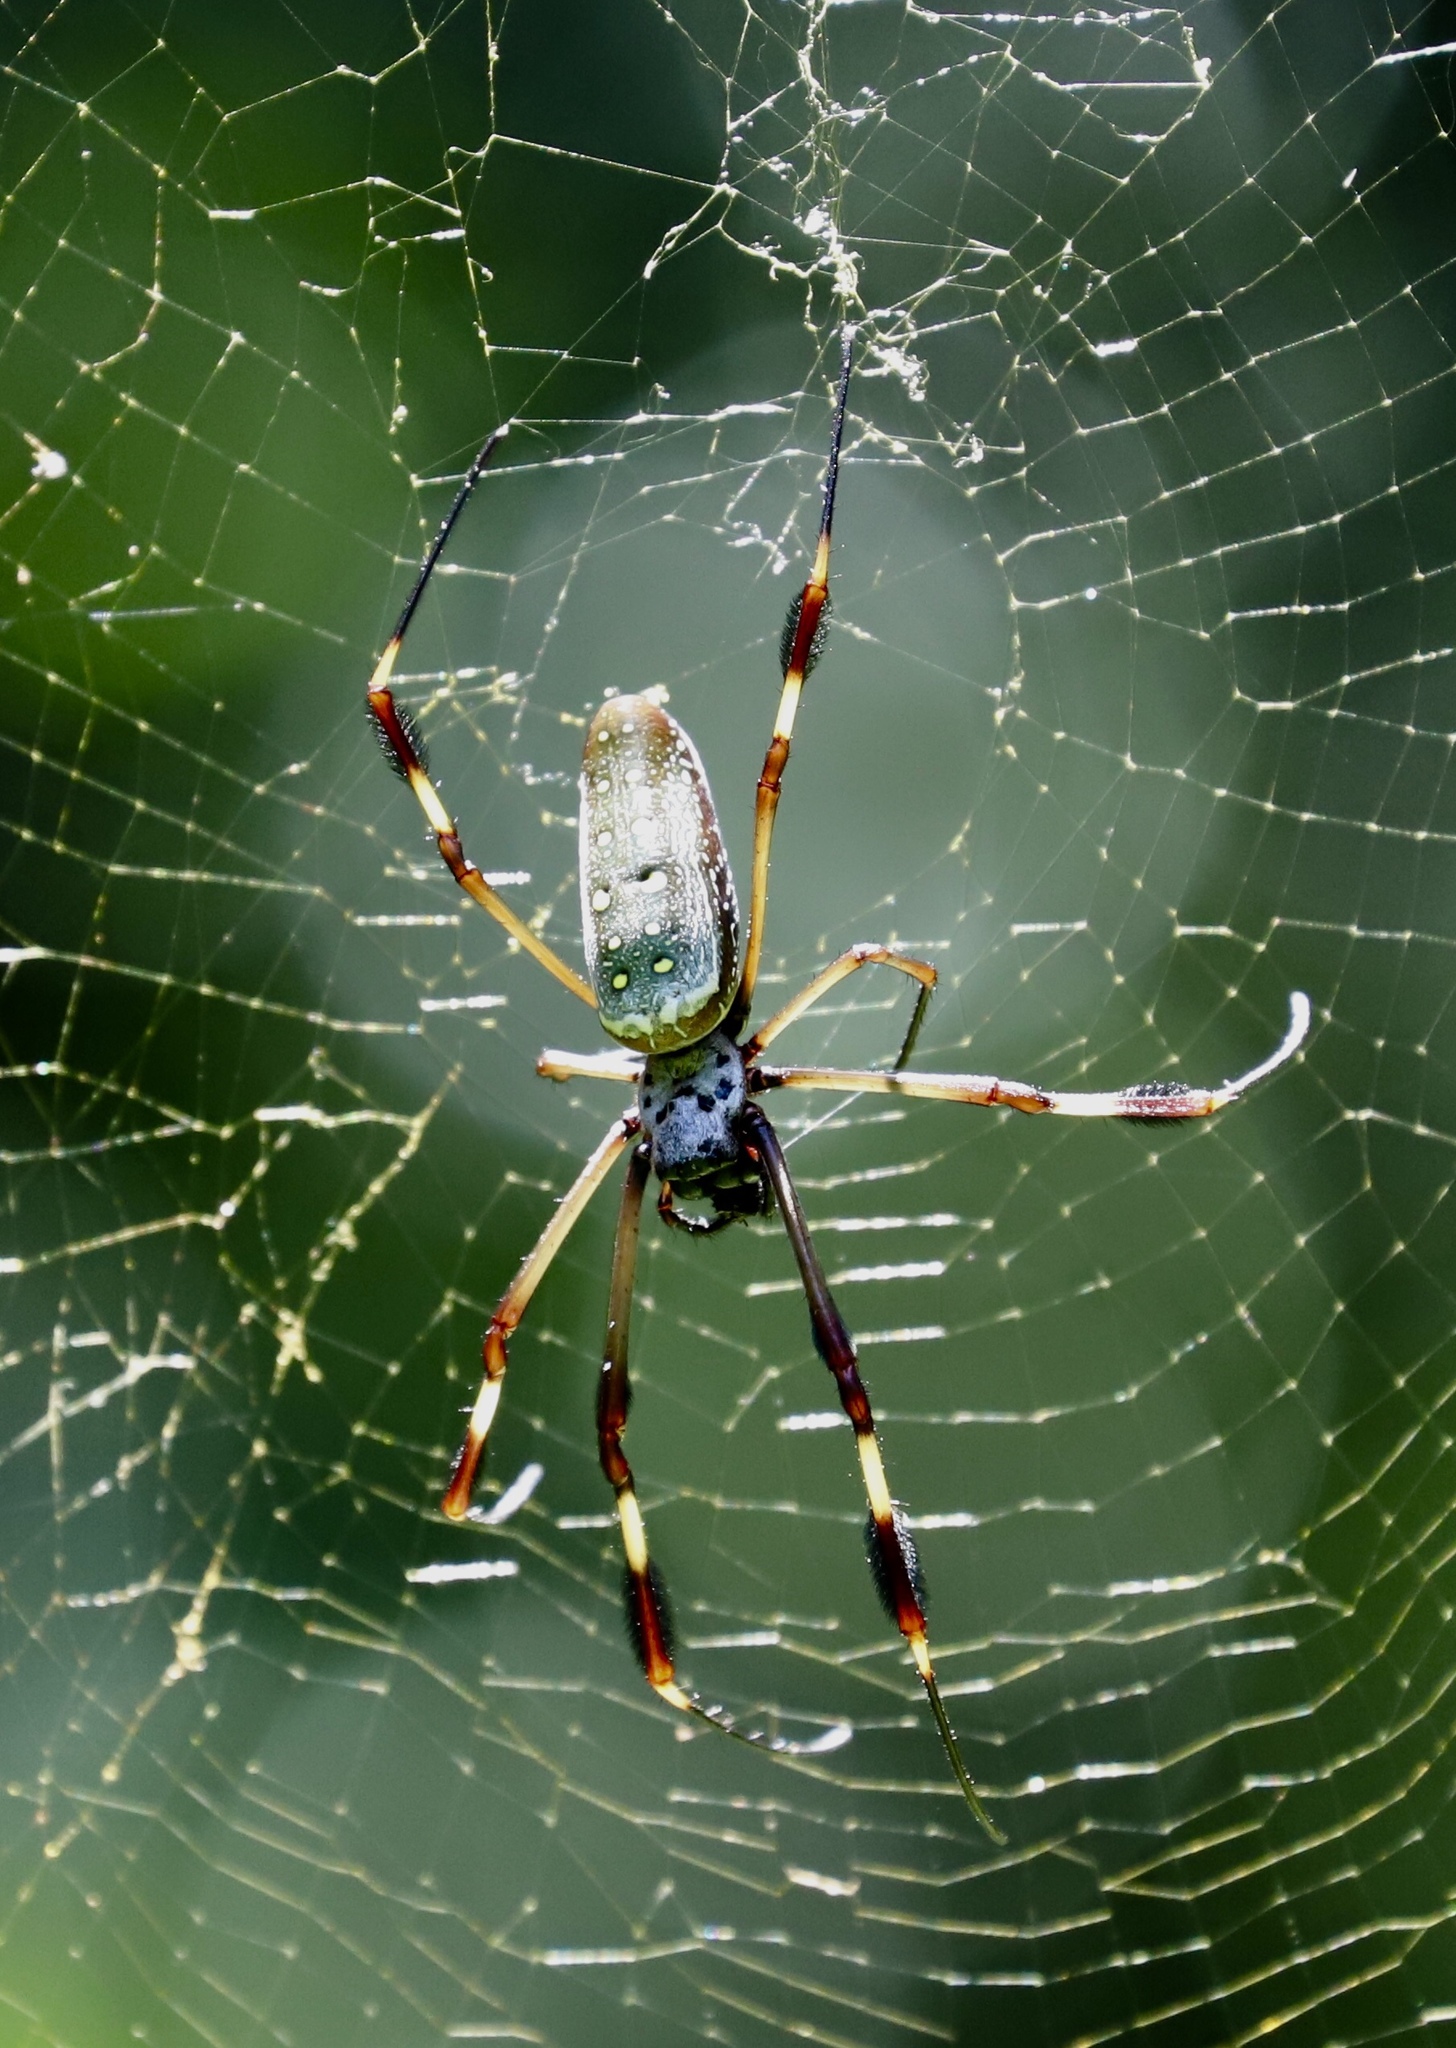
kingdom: Animalia
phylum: Arthropoda
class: Arachnida
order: Araneae
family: Araneidae
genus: Trichonephila
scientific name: Trichonephila clavipes
